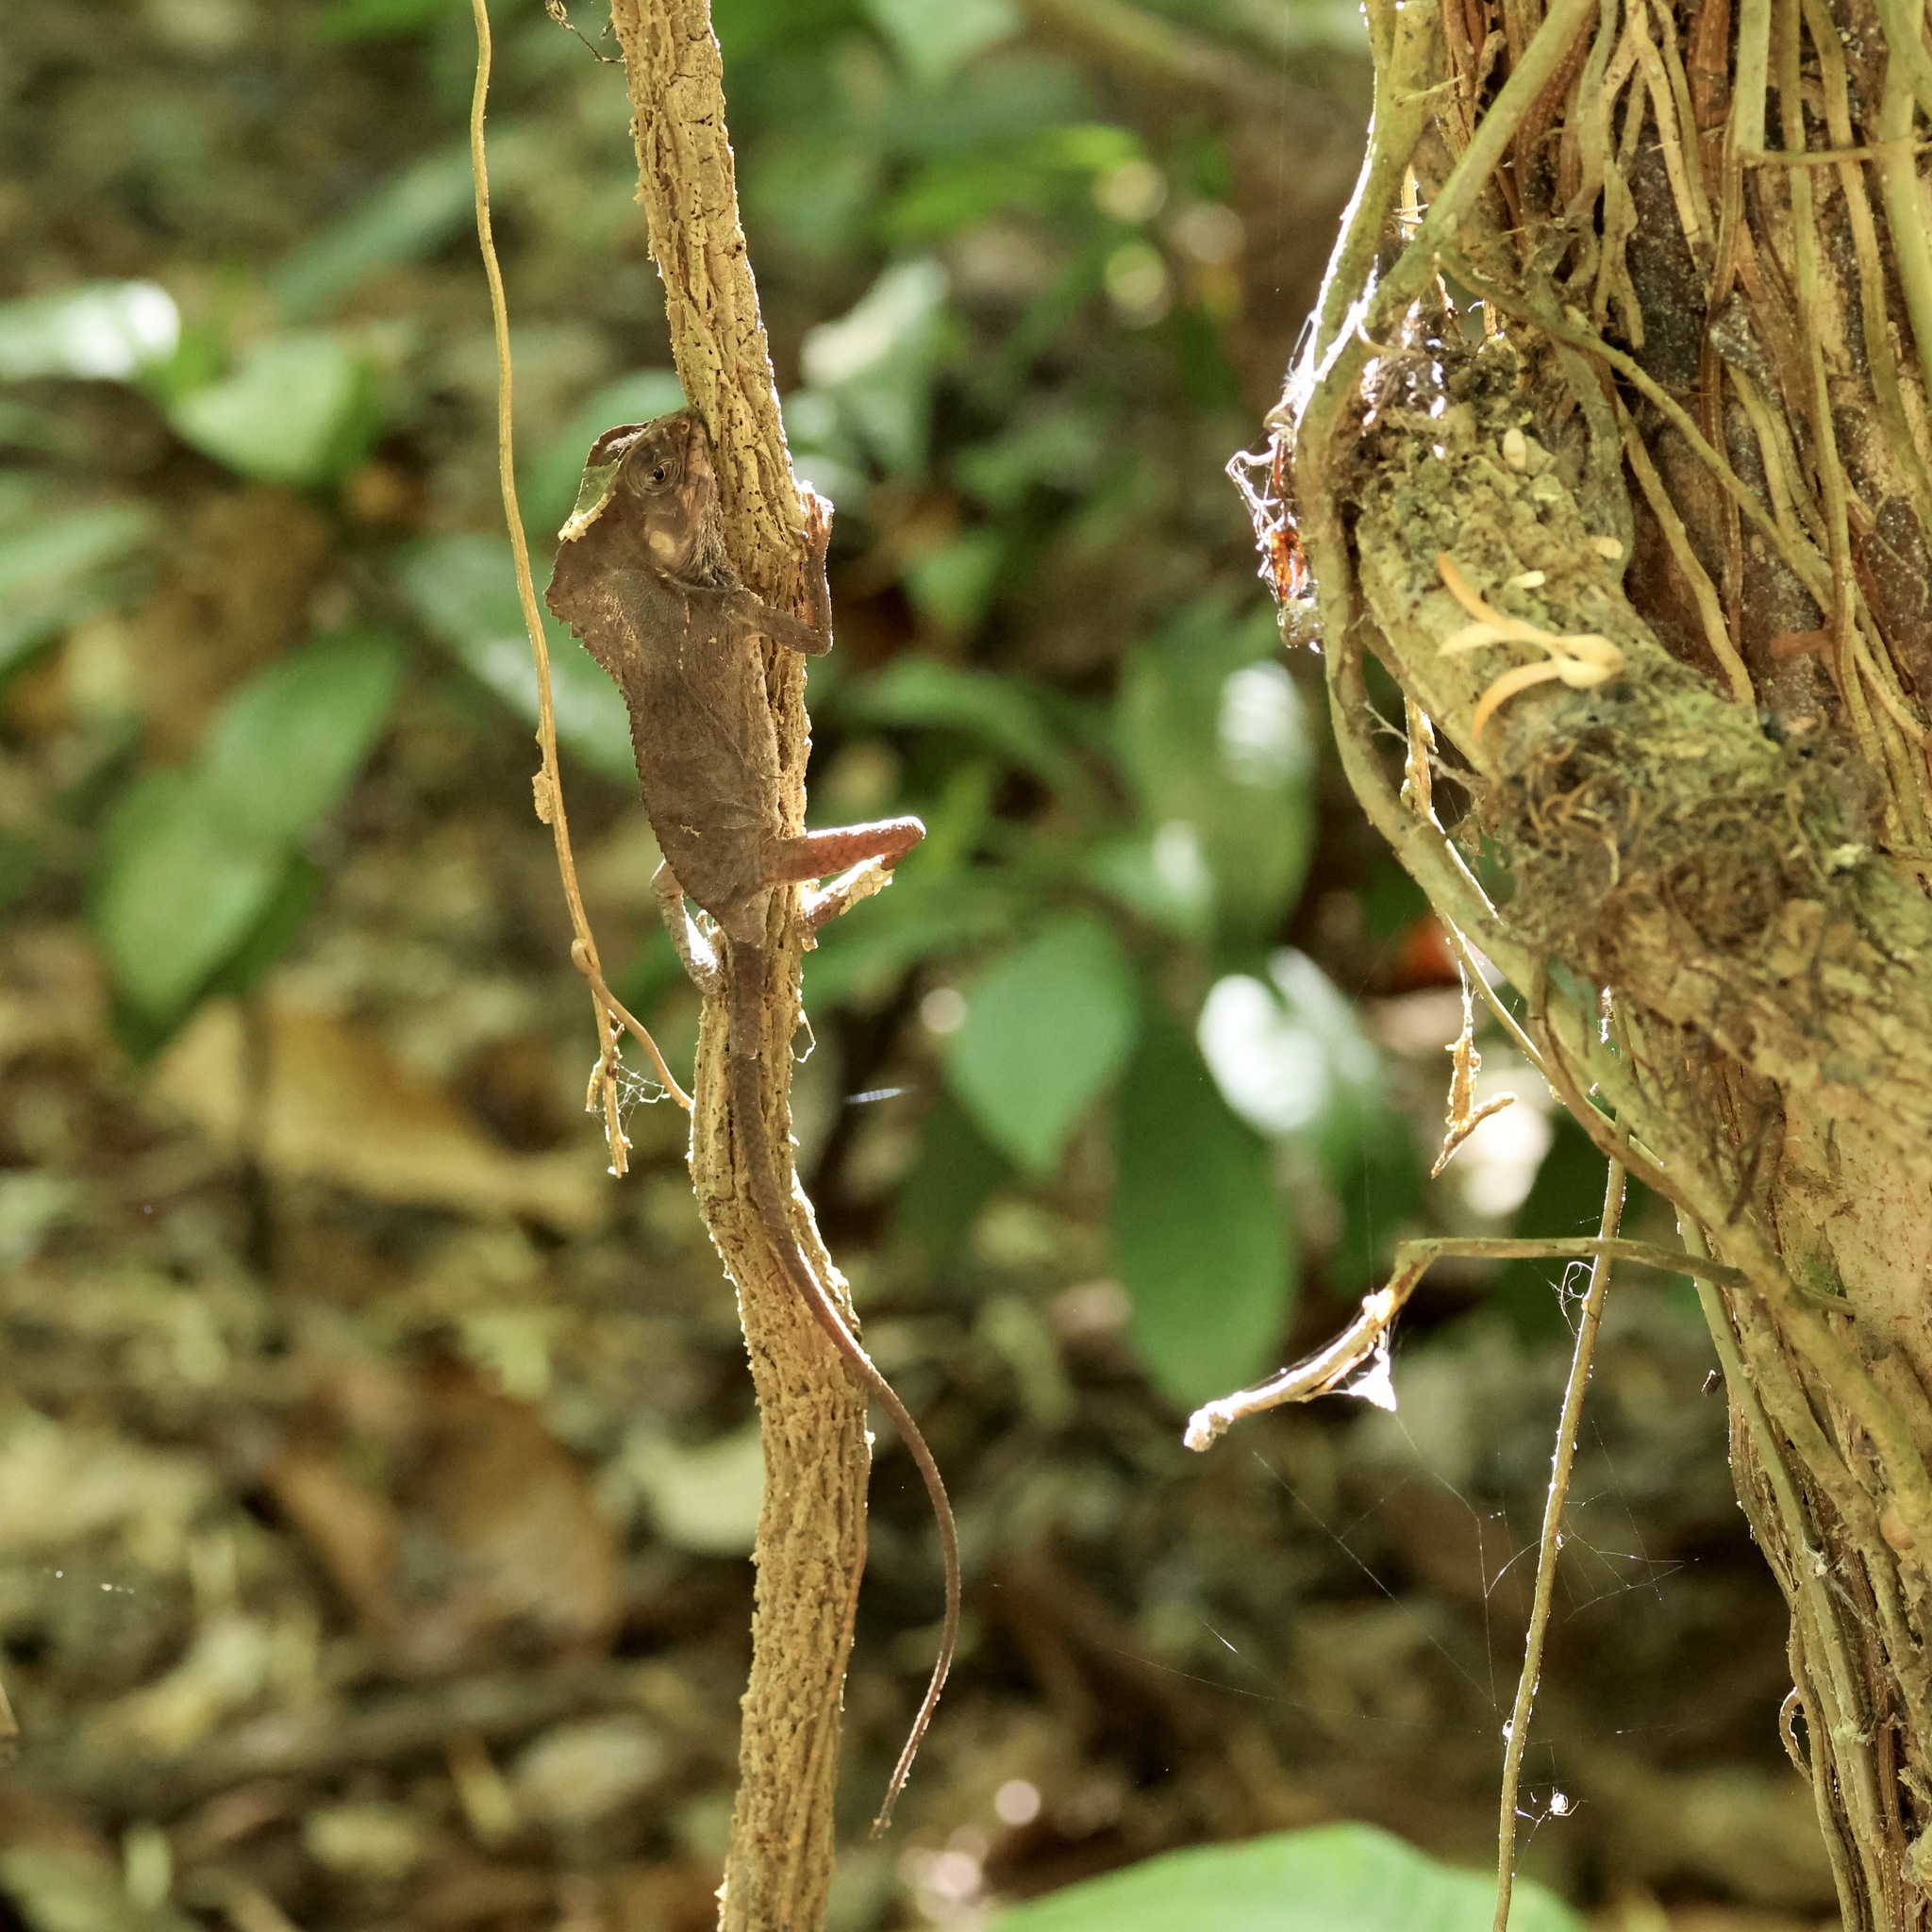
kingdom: Animalia
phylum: Chordata
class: Squamata
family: Corytophanidae
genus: Corytophanes
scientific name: Corytophanes cristatus
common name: Smooth helmeted iguana
